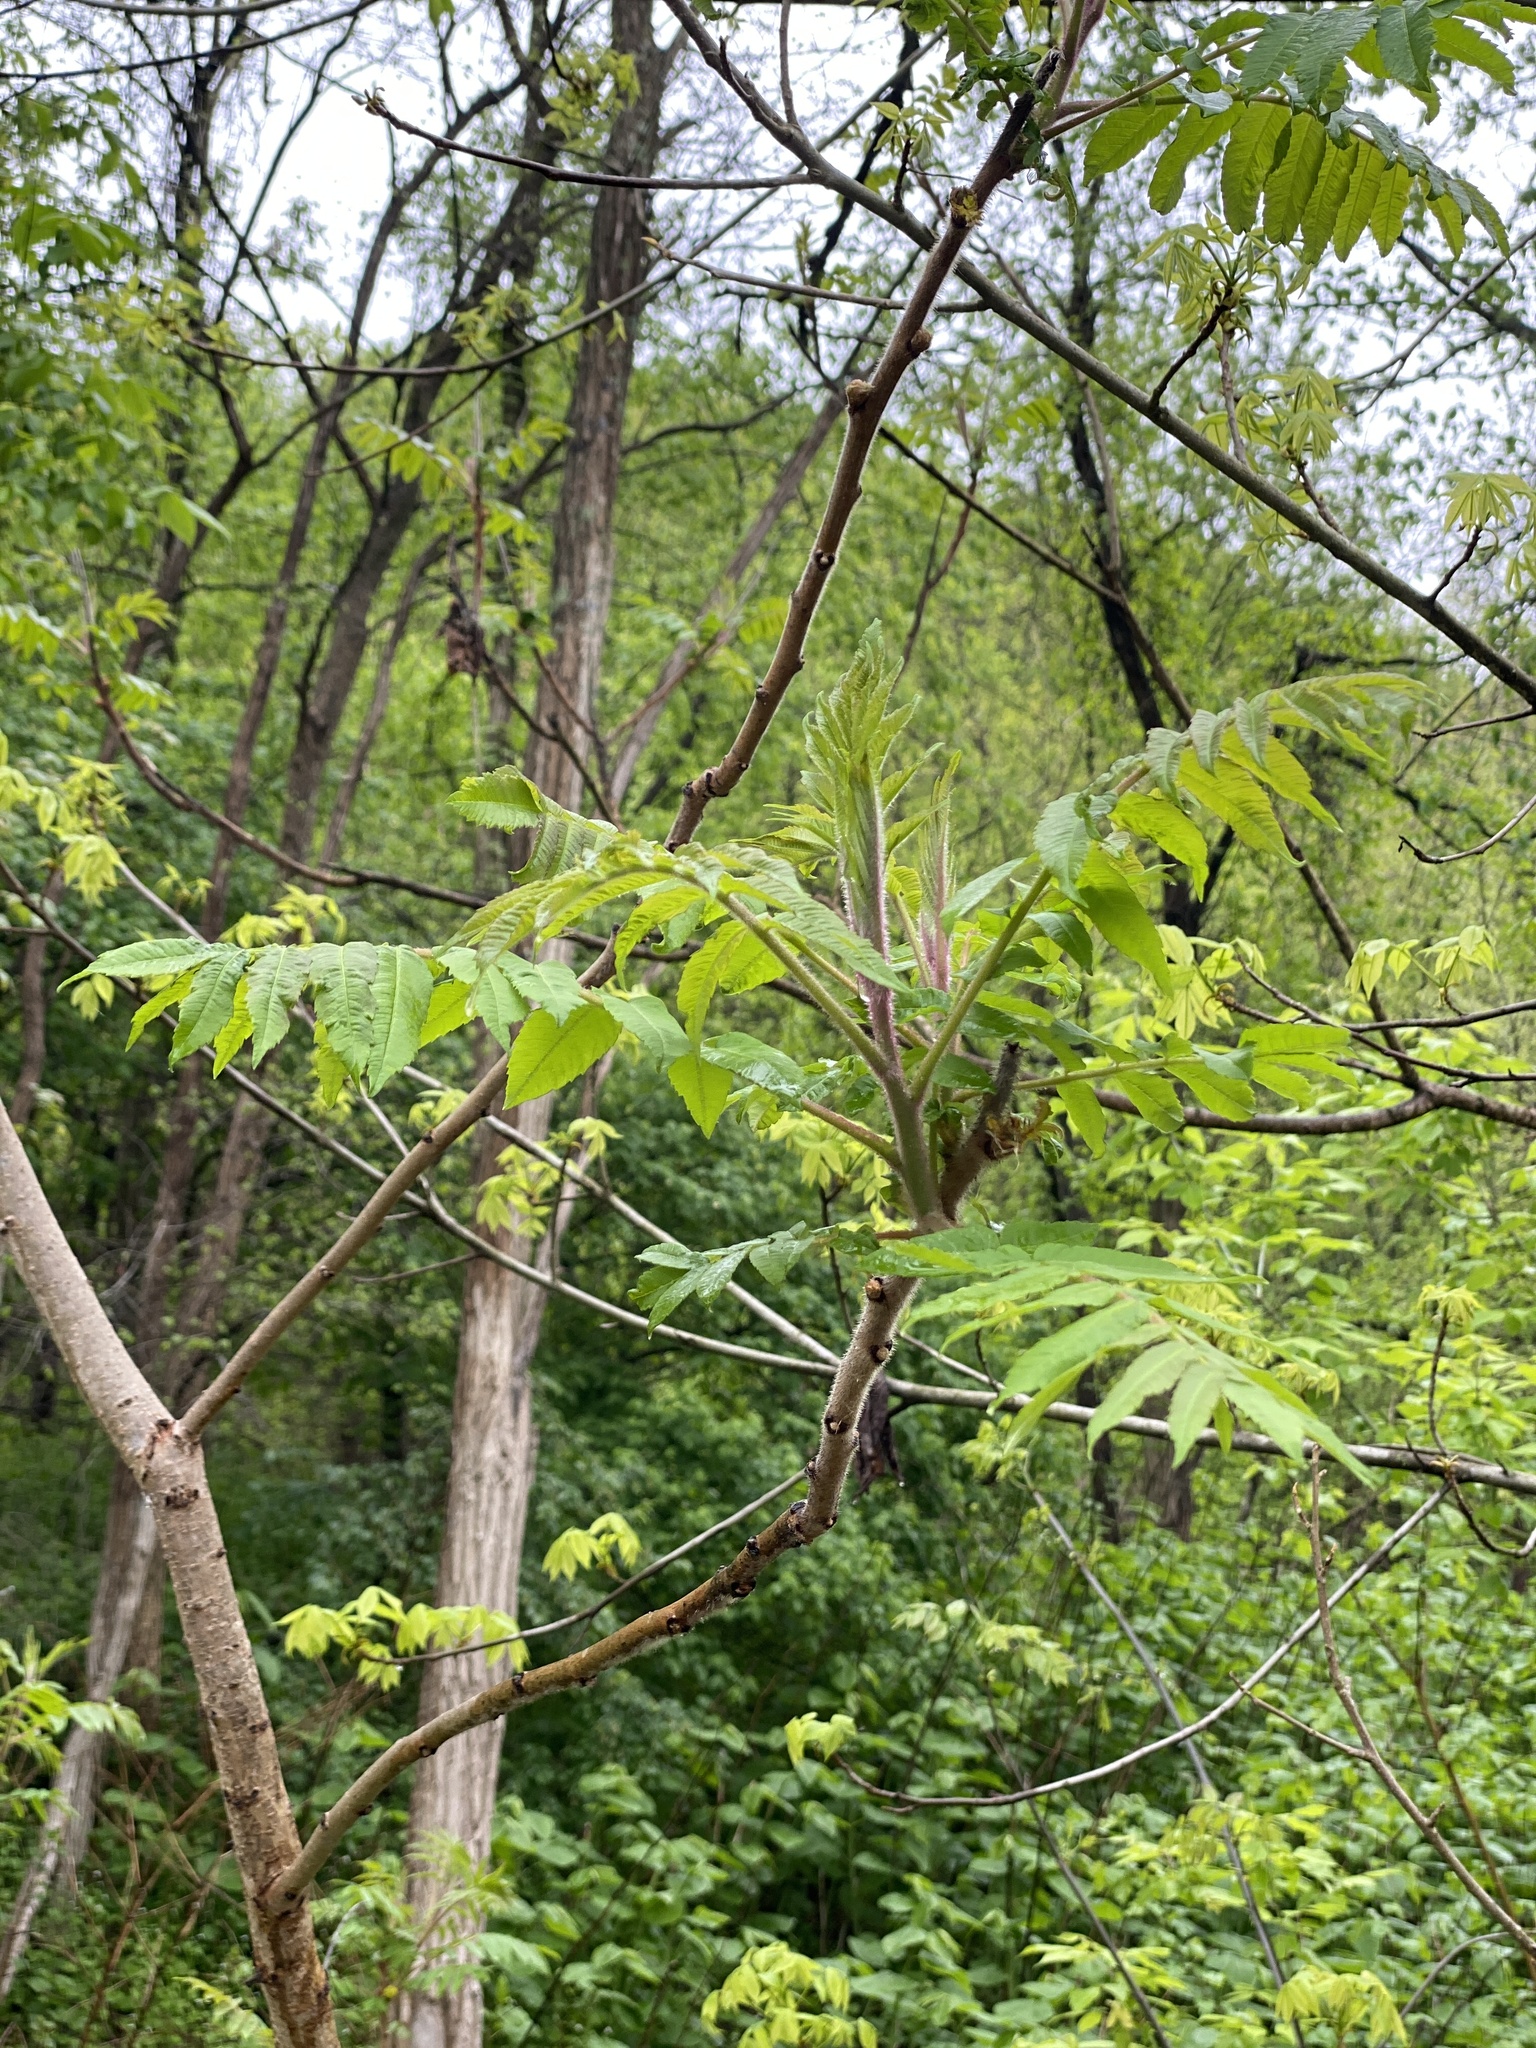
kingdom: Plantae
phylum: Tracheophyta
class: Magnoliopsida
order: Sapindales
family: Anacardiaceae
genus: Rhus
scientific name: Rhus typhina
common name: Staghorn sumac
